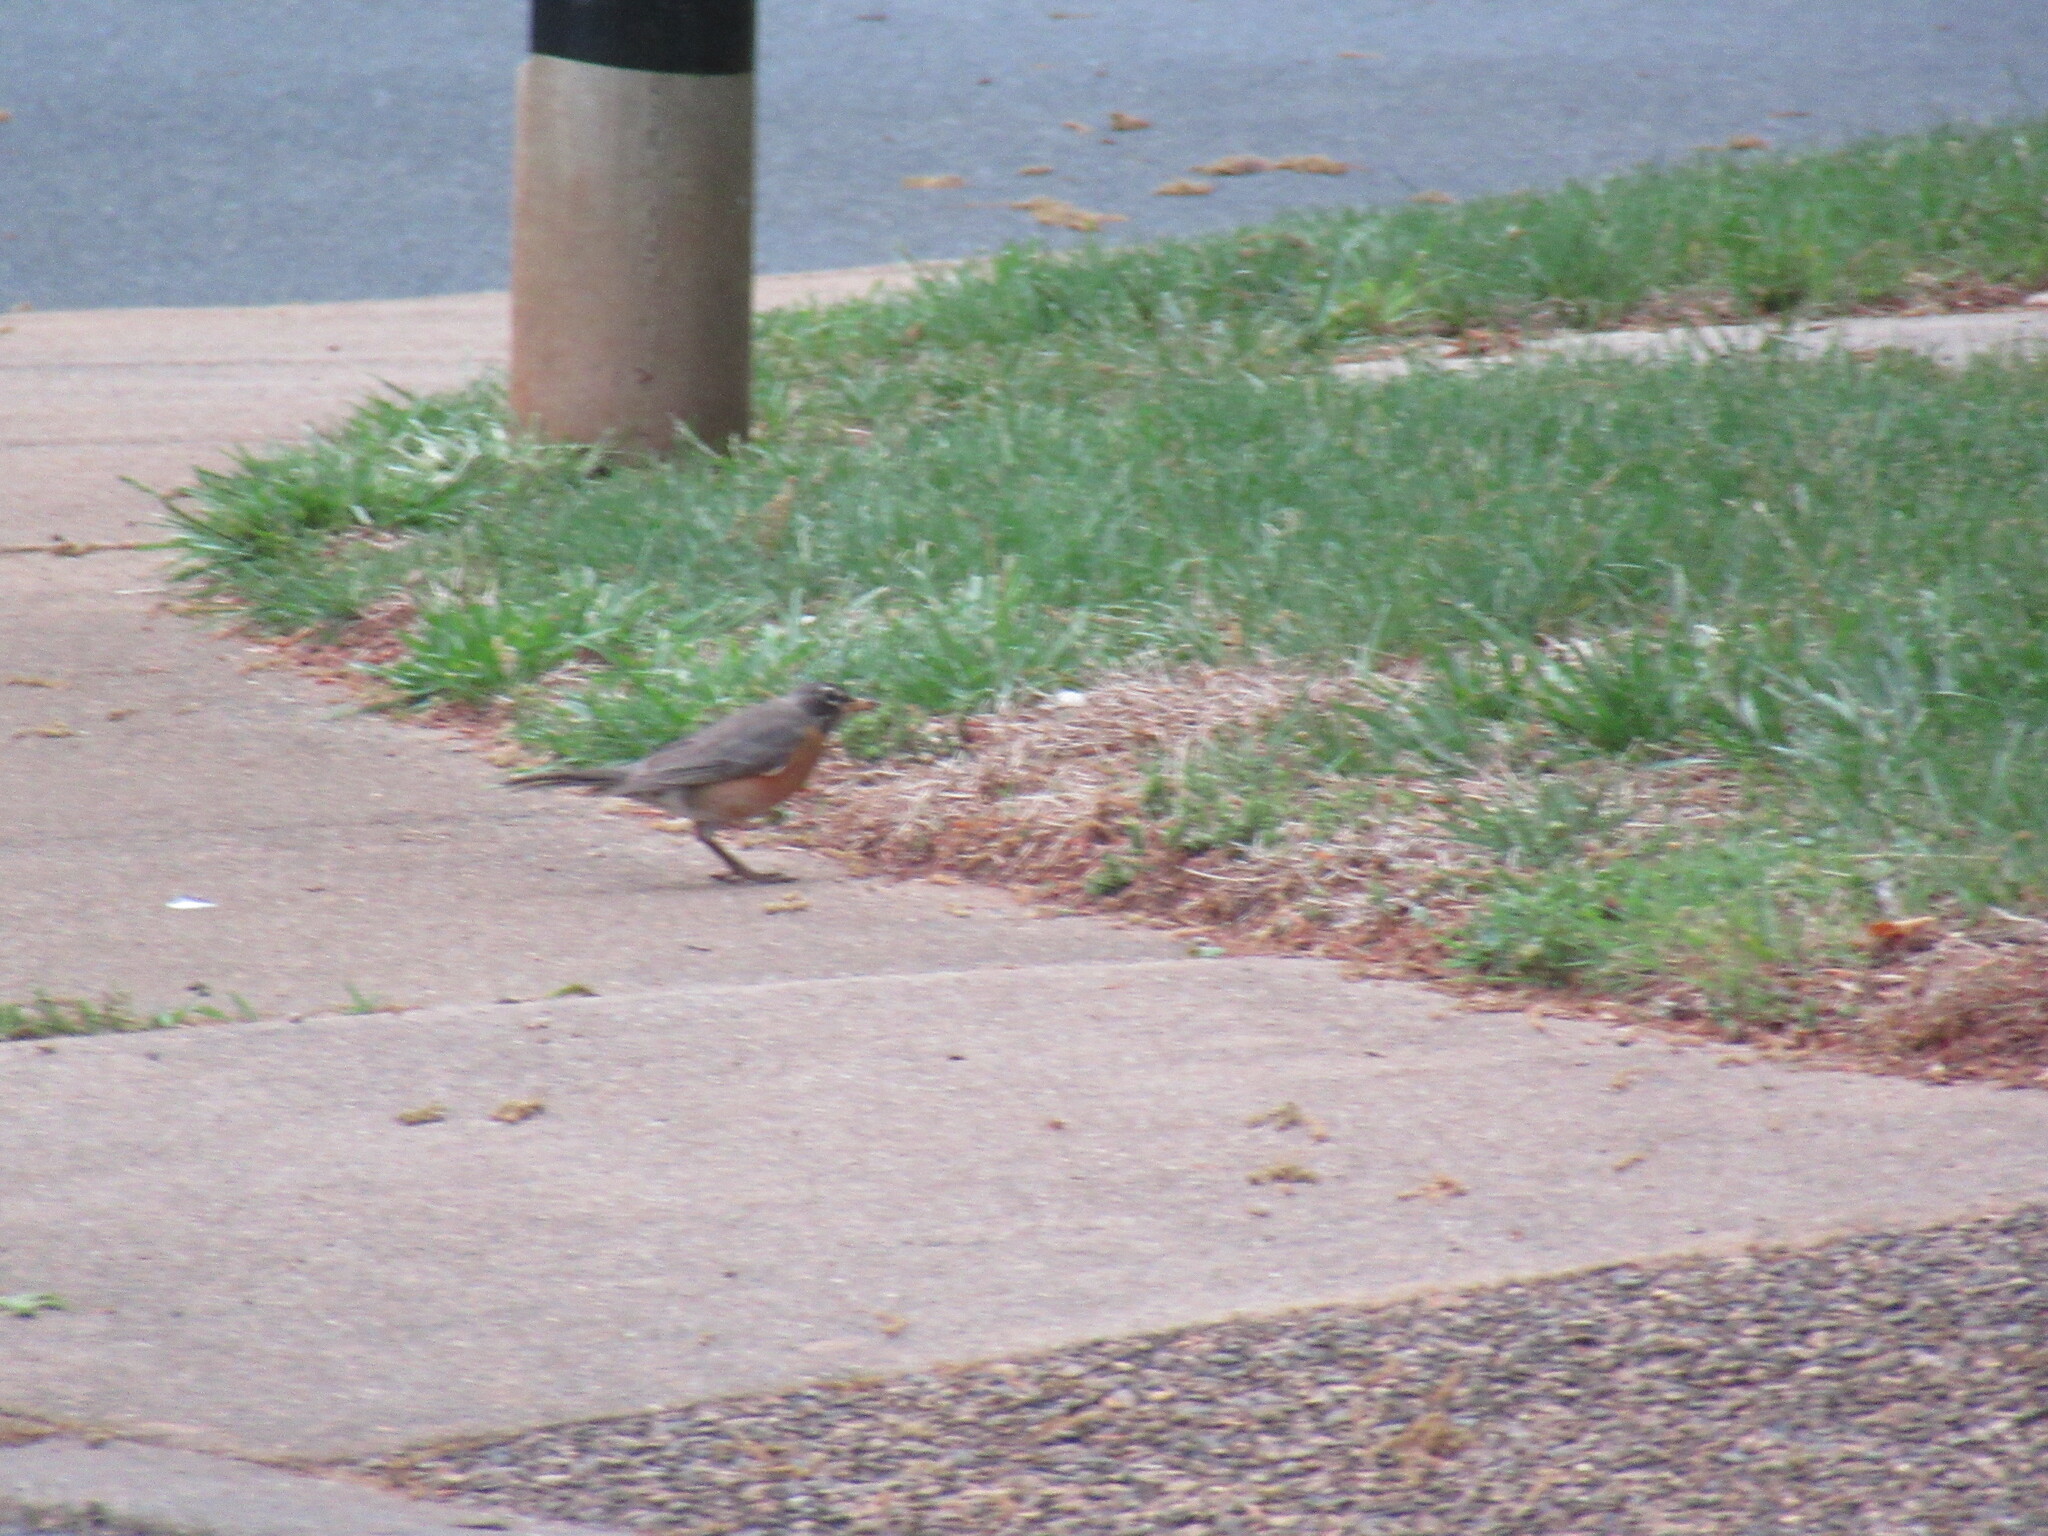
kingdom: Animalia
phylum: Chordata
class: Aves
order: Passeriformes
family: Turdidae
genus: Turdus
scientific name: Turdus migratorius
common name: American robin
